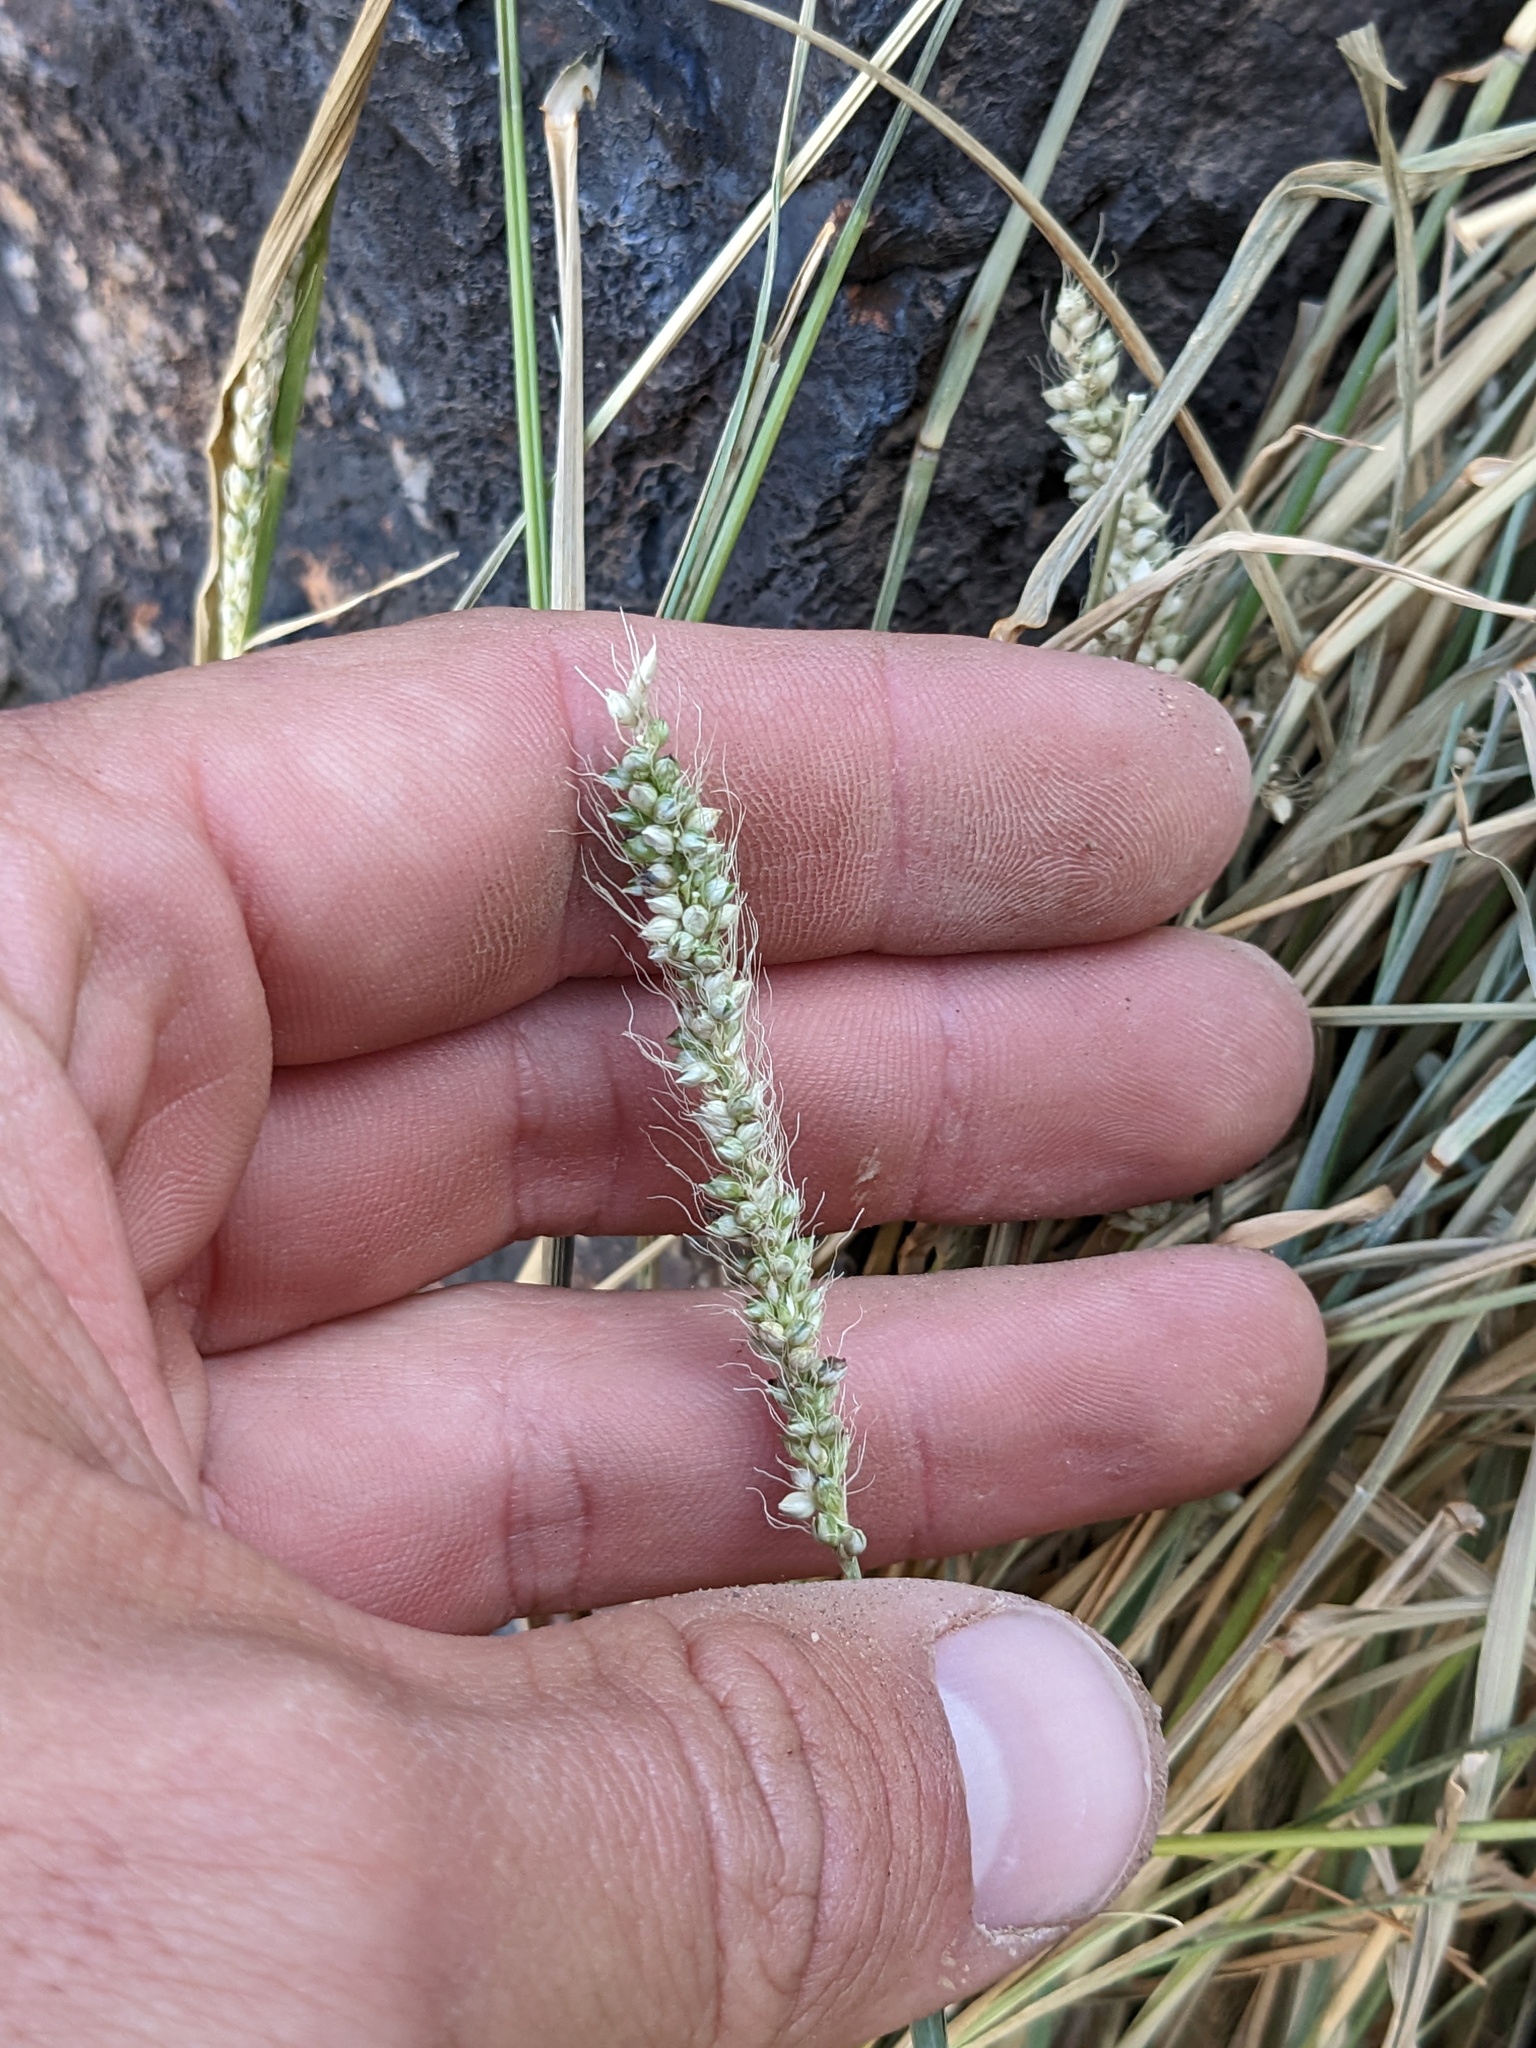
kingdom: Plantae
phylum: Tracheophyta
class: Liliopsida
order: Poales
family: Poaceae
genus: Setaria
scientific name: Setaria leucopila
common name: Plains bristle grass
